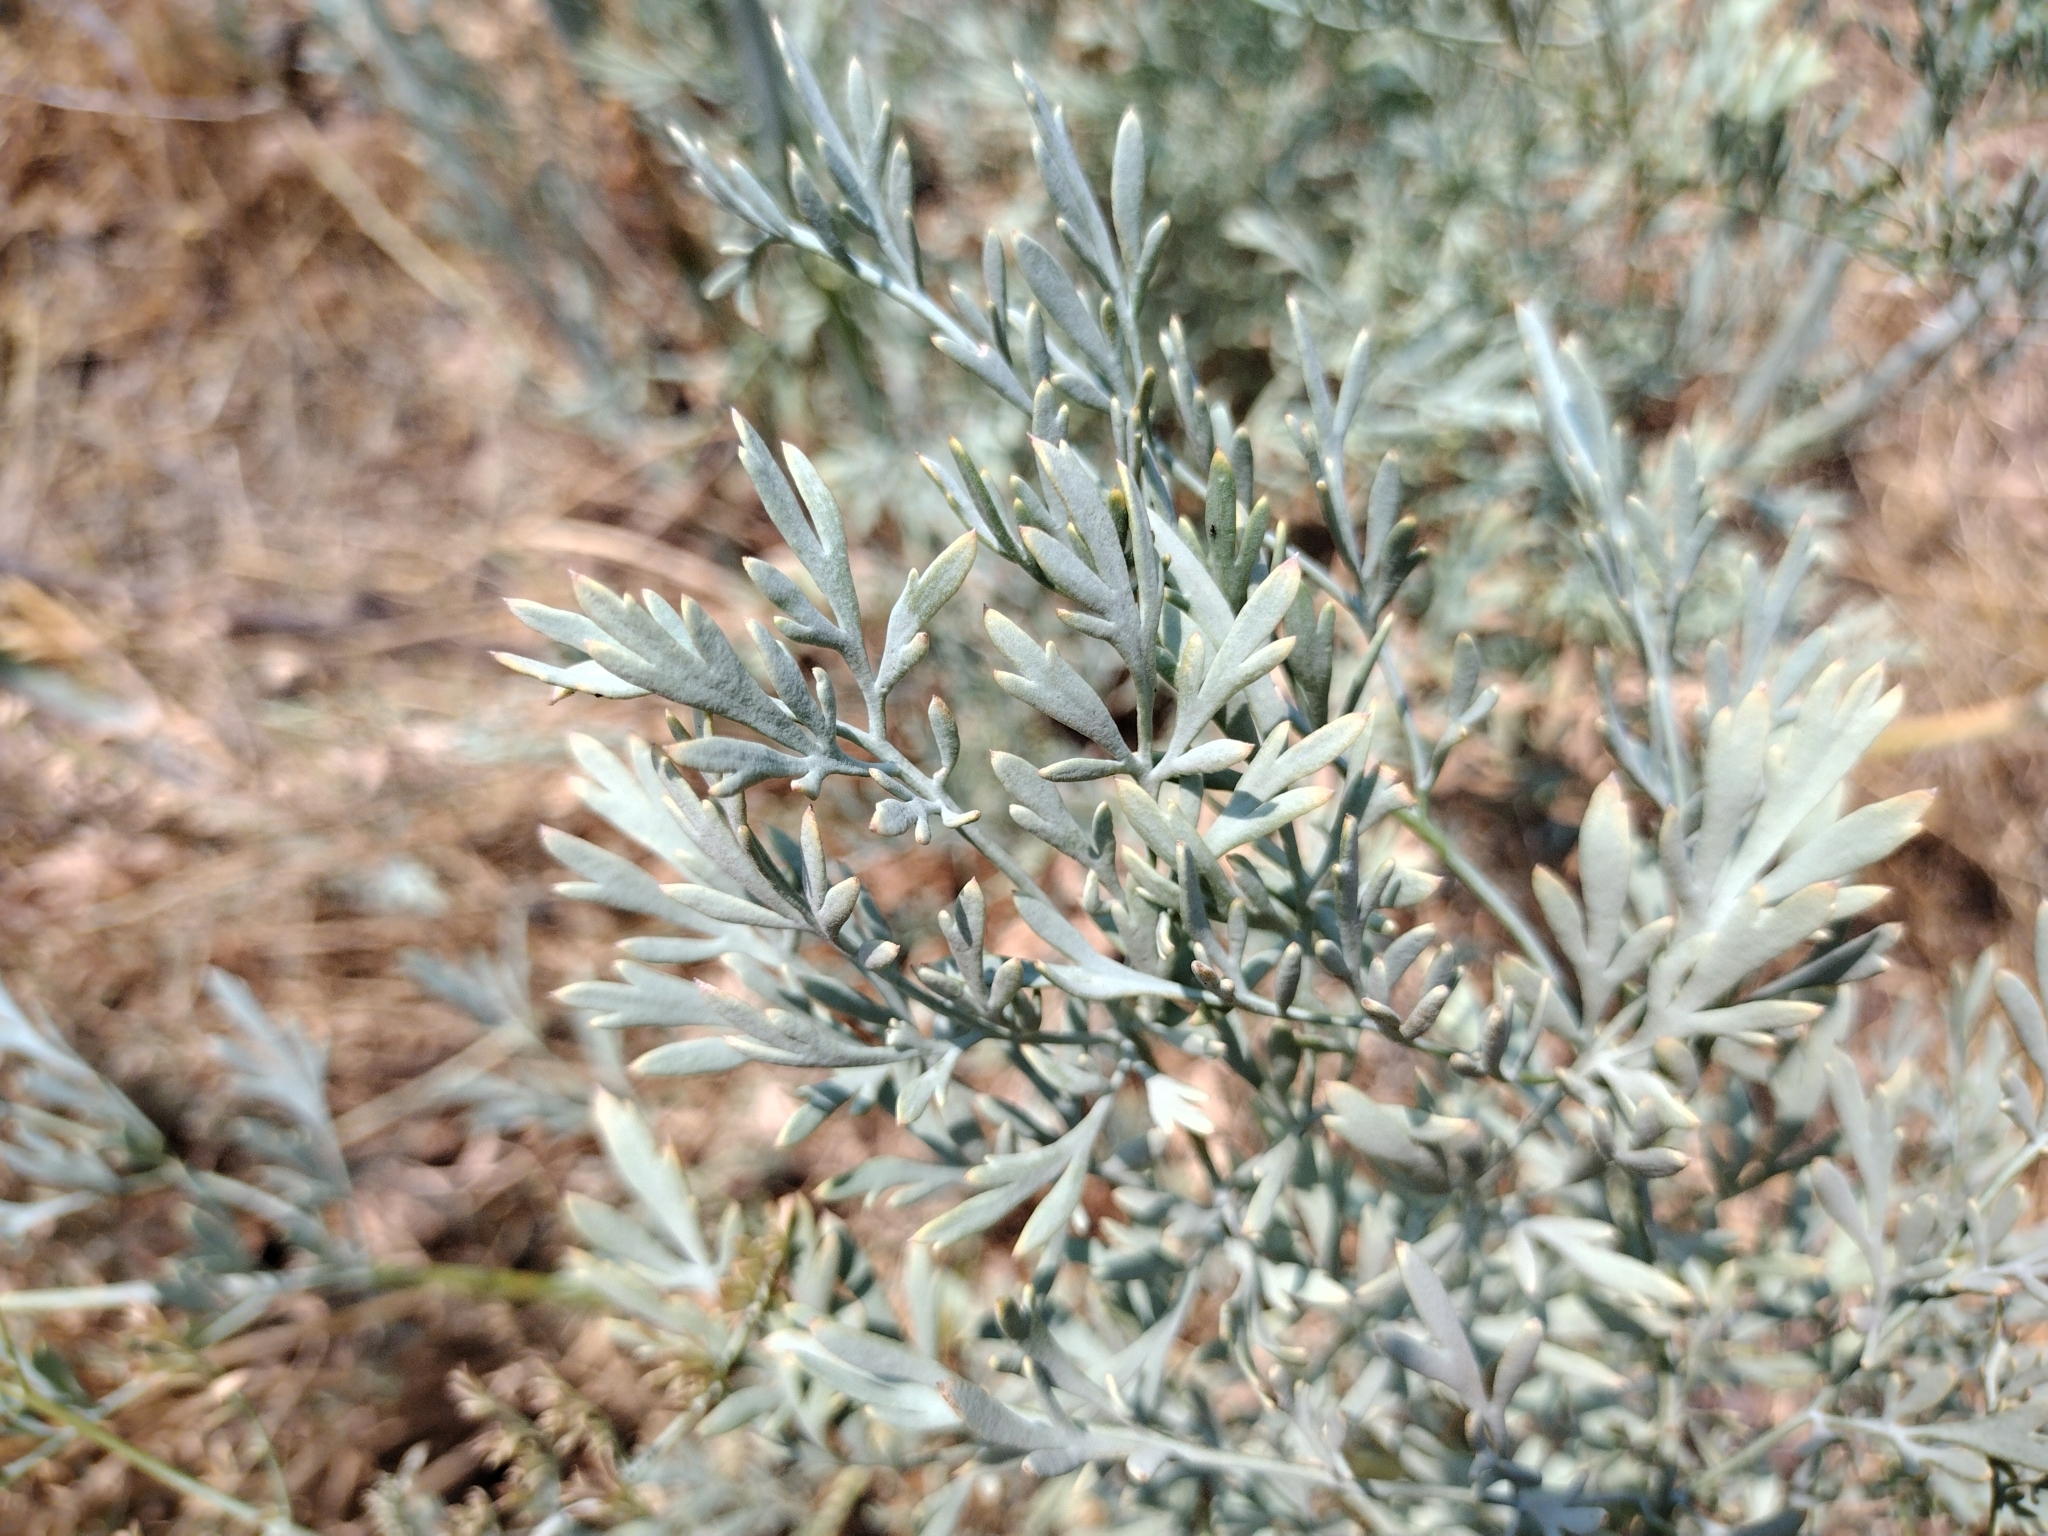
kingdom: Plantae
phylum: Tracheophyta
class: Magnoliopsida
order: Ranunculales
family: Papaveraceae
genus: Ehrendorferia
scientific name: Ehrendorferia chrysantha
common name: Golden eardrops
